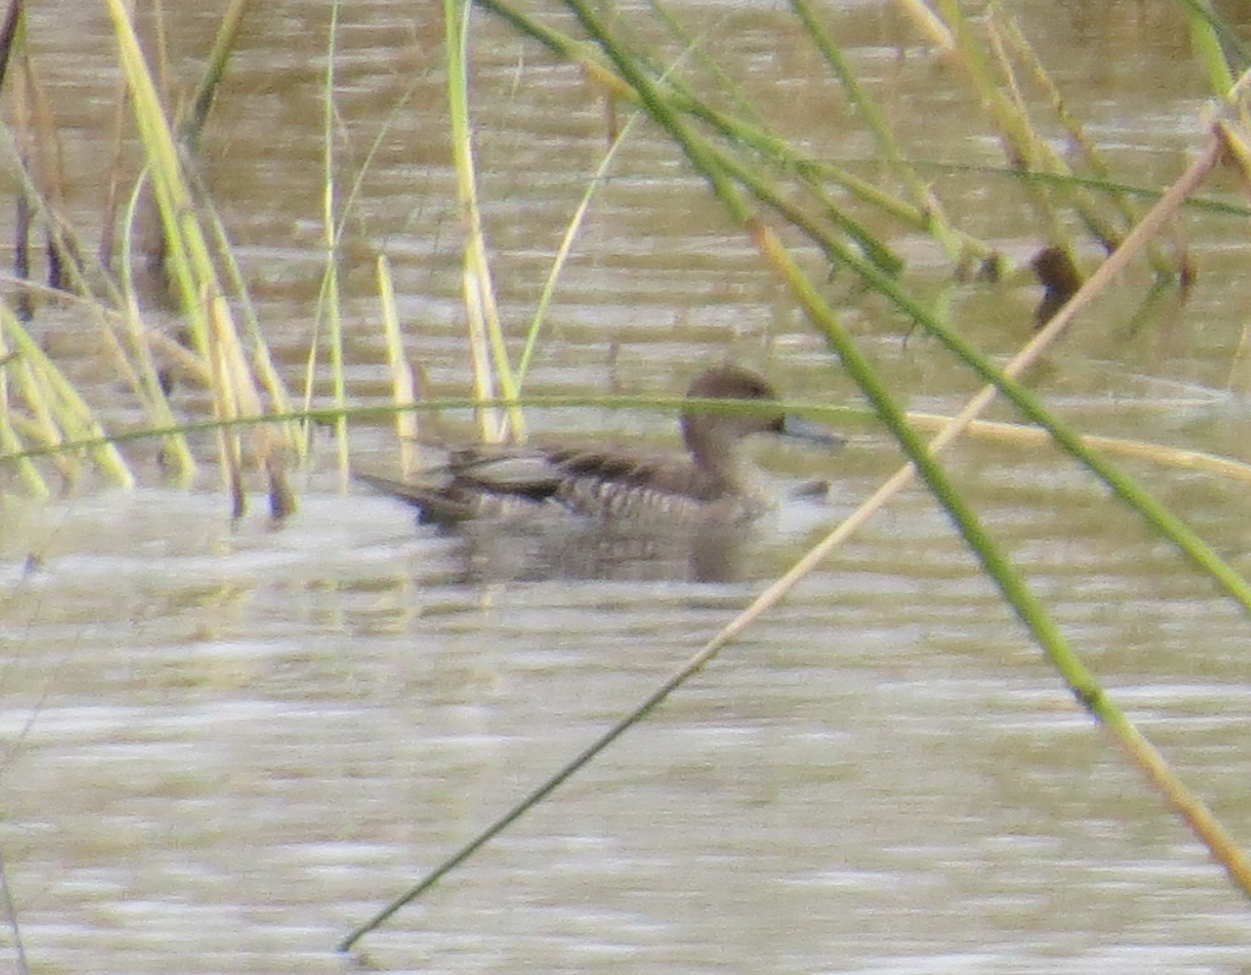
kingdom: Animalia
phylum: Chordata
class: Aves
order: Anseriformes
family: Anatidae
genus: Anas
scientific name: Anas acuta
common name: Northern pintail
